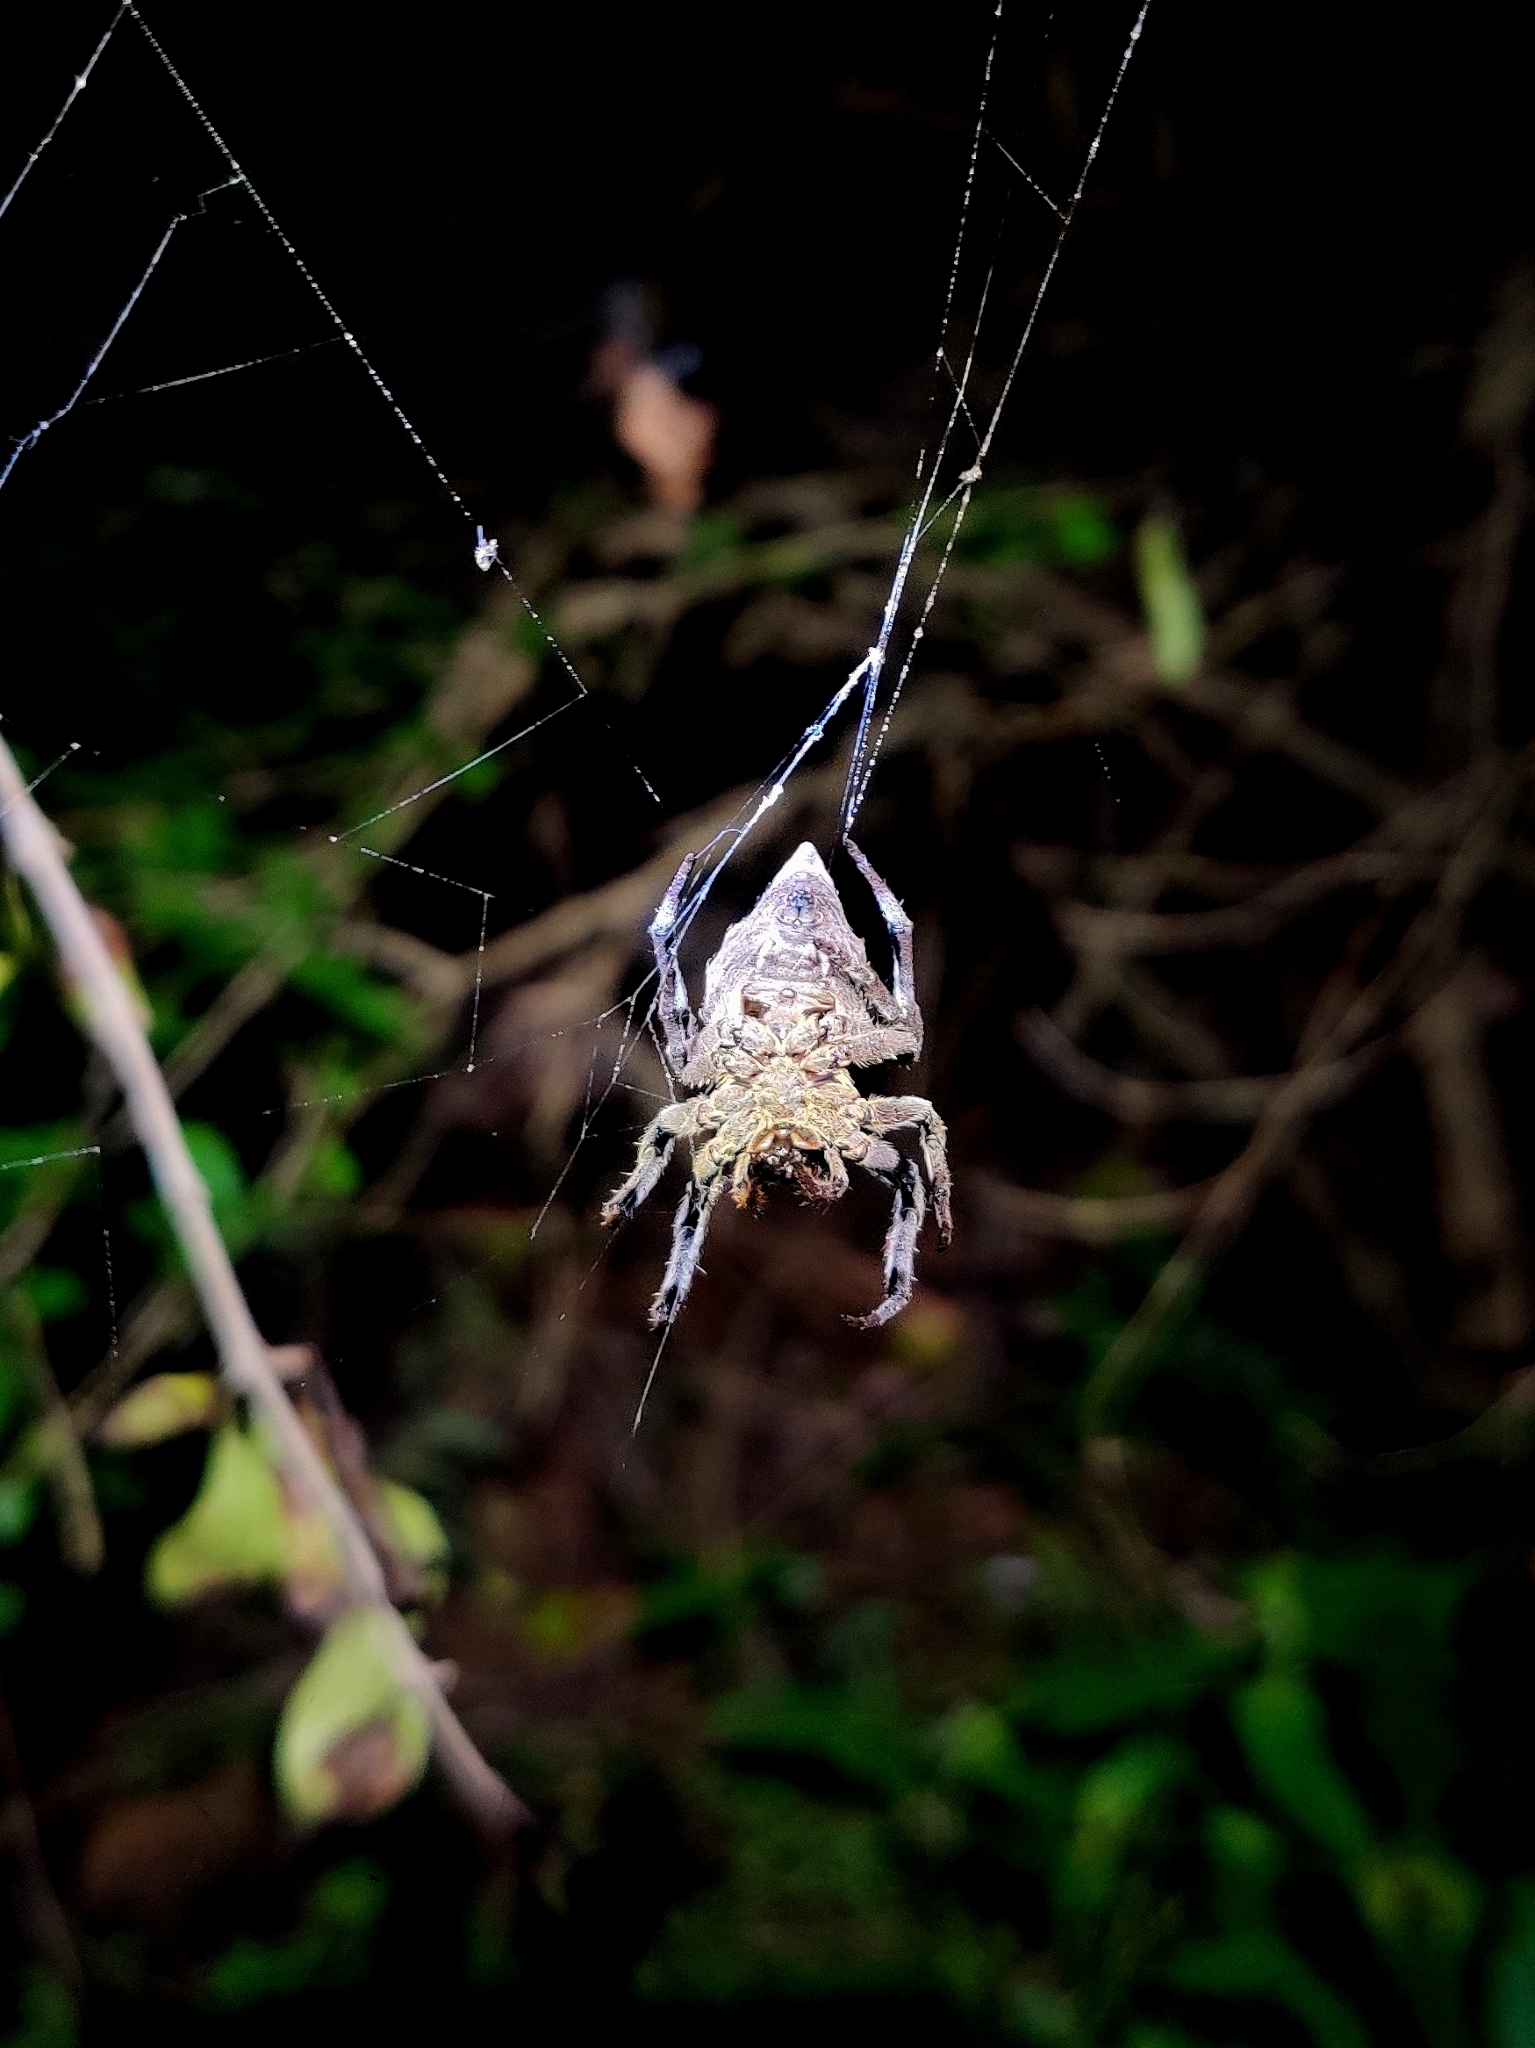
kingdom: Animalia
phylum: Arthropoda
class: Arachnida
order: Araneae
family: Araneidae
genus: Parawixia
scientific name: Parawixia dehaani
